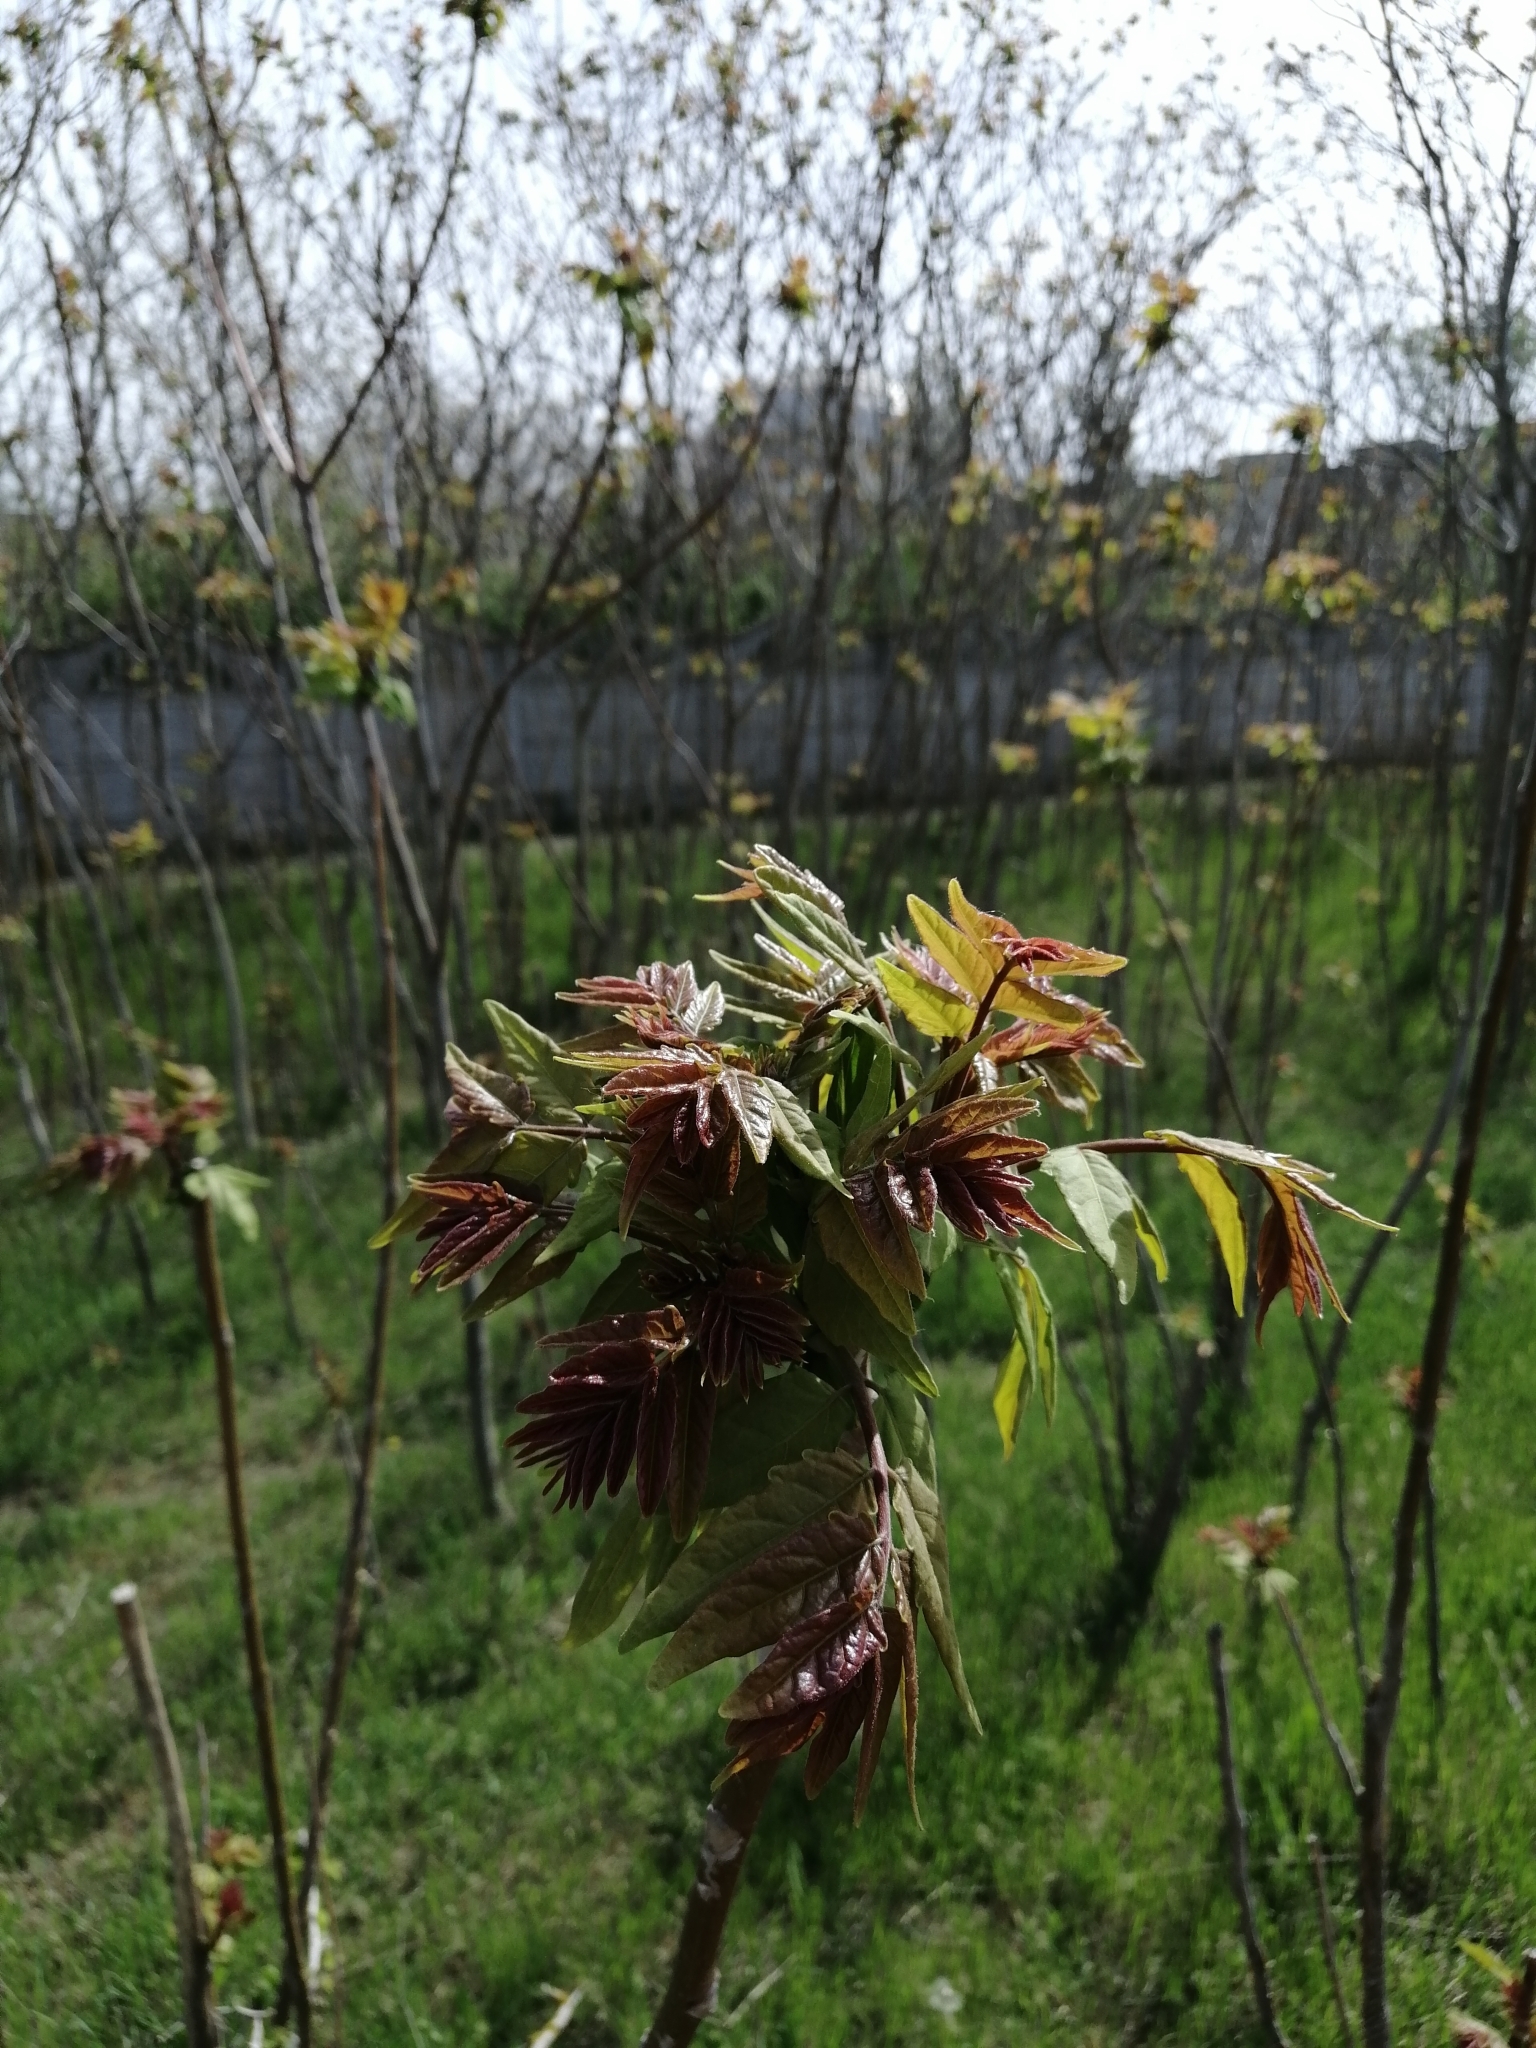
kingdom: Plantae
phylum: Tracheophyta
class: Magnoliopsida
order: Sapindales
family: Simaroubaceae
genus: Ailanthus
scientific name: Ailanthus altissima
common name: Tree-of-heaven
